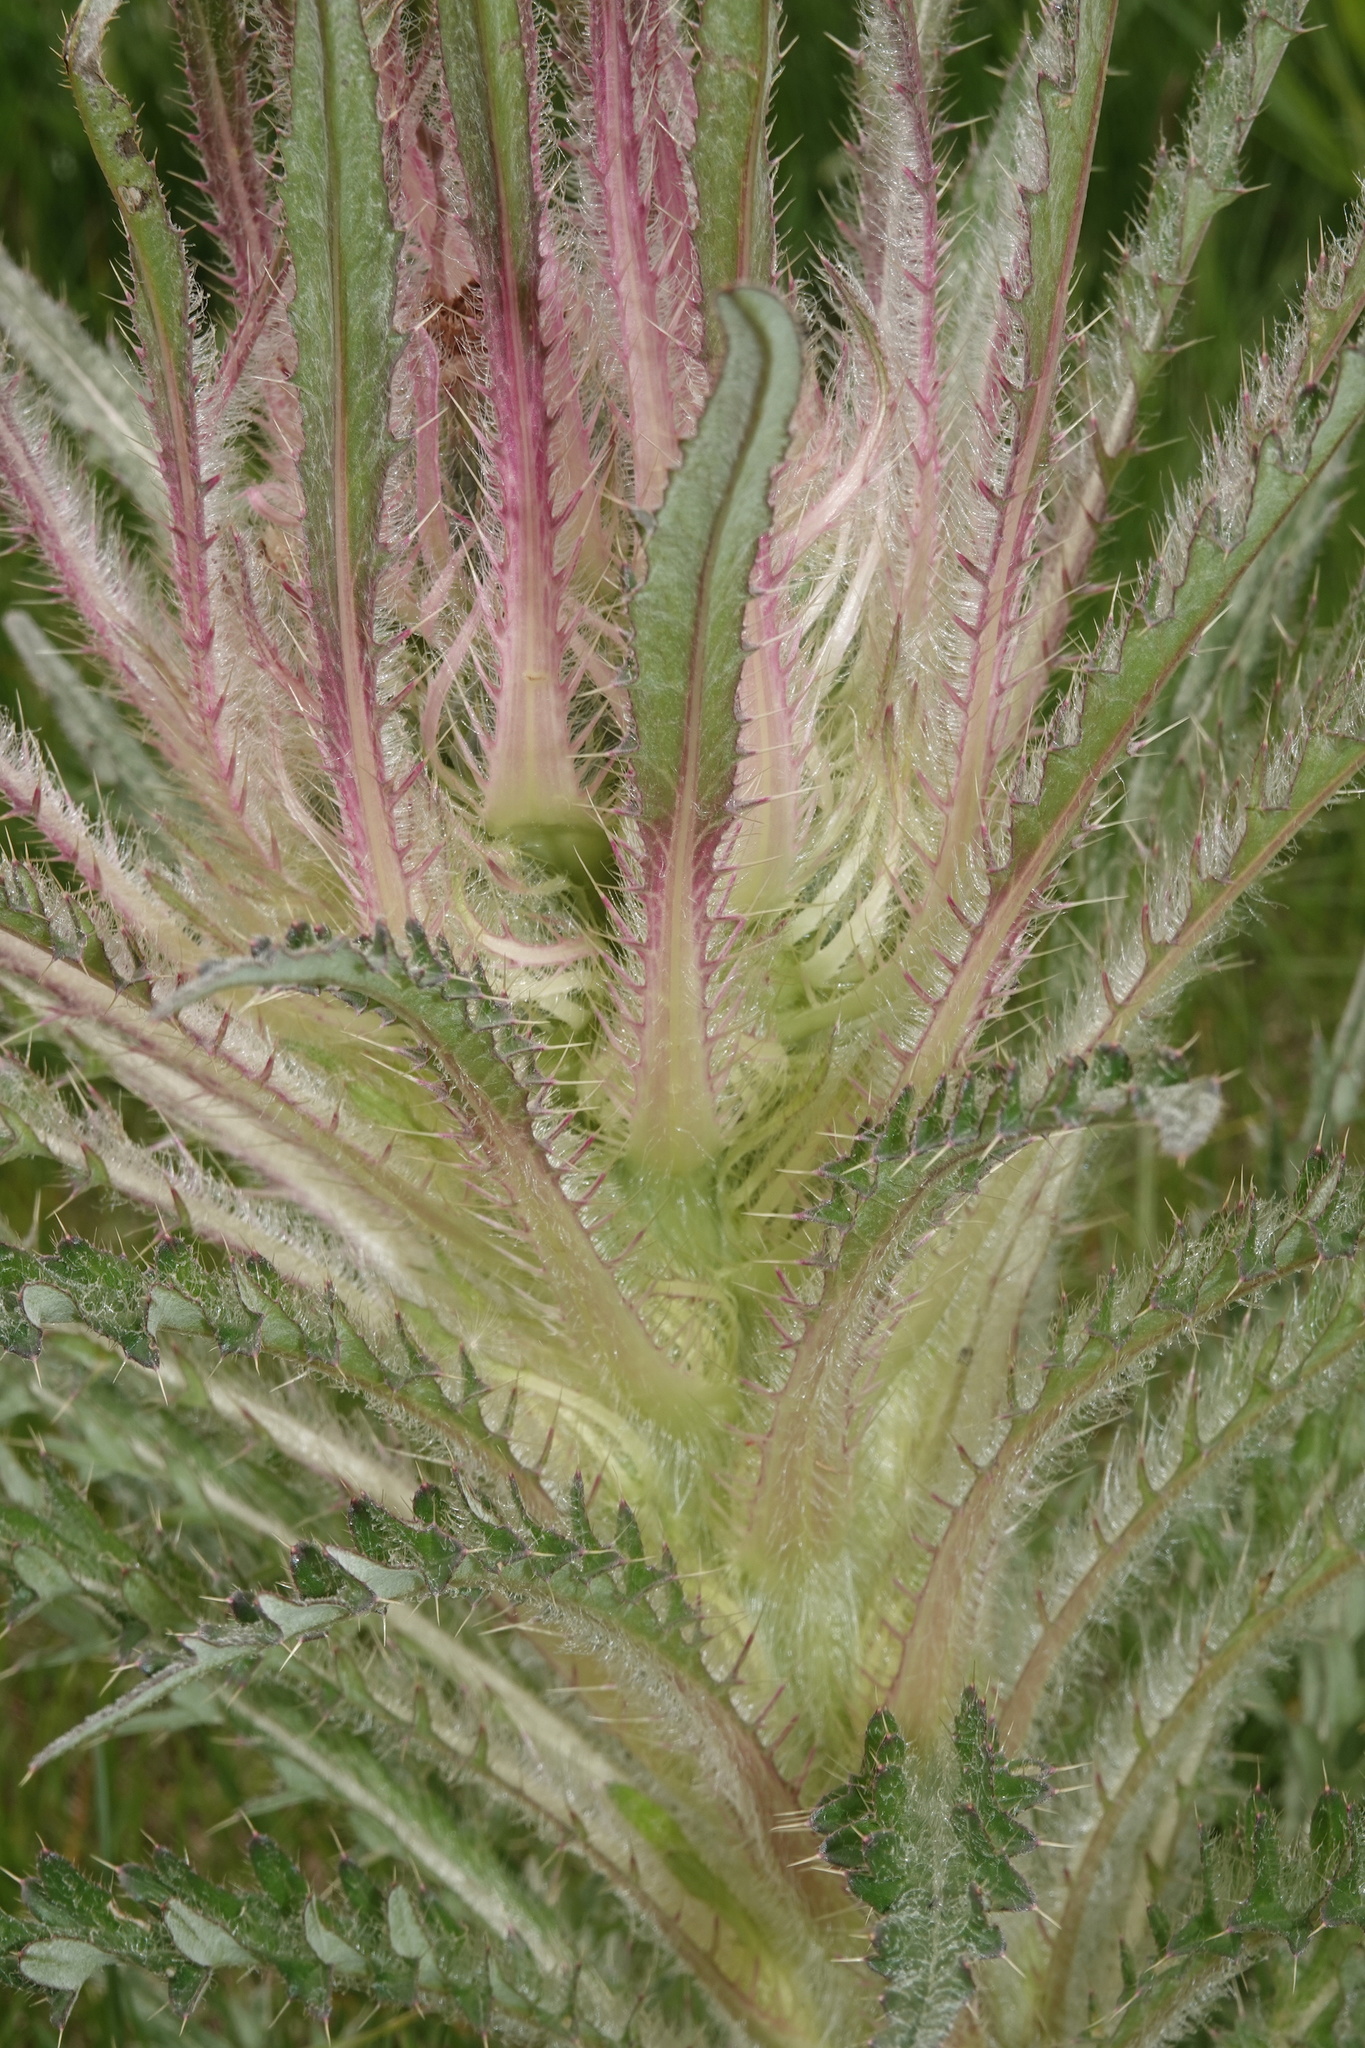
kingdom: Plantae
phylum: Tracheophyta
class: Magnoliopsida
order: Asterales
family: Asteraceae
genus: Cirsium
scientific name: Cirsium scariosum
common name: Meadow thistle
